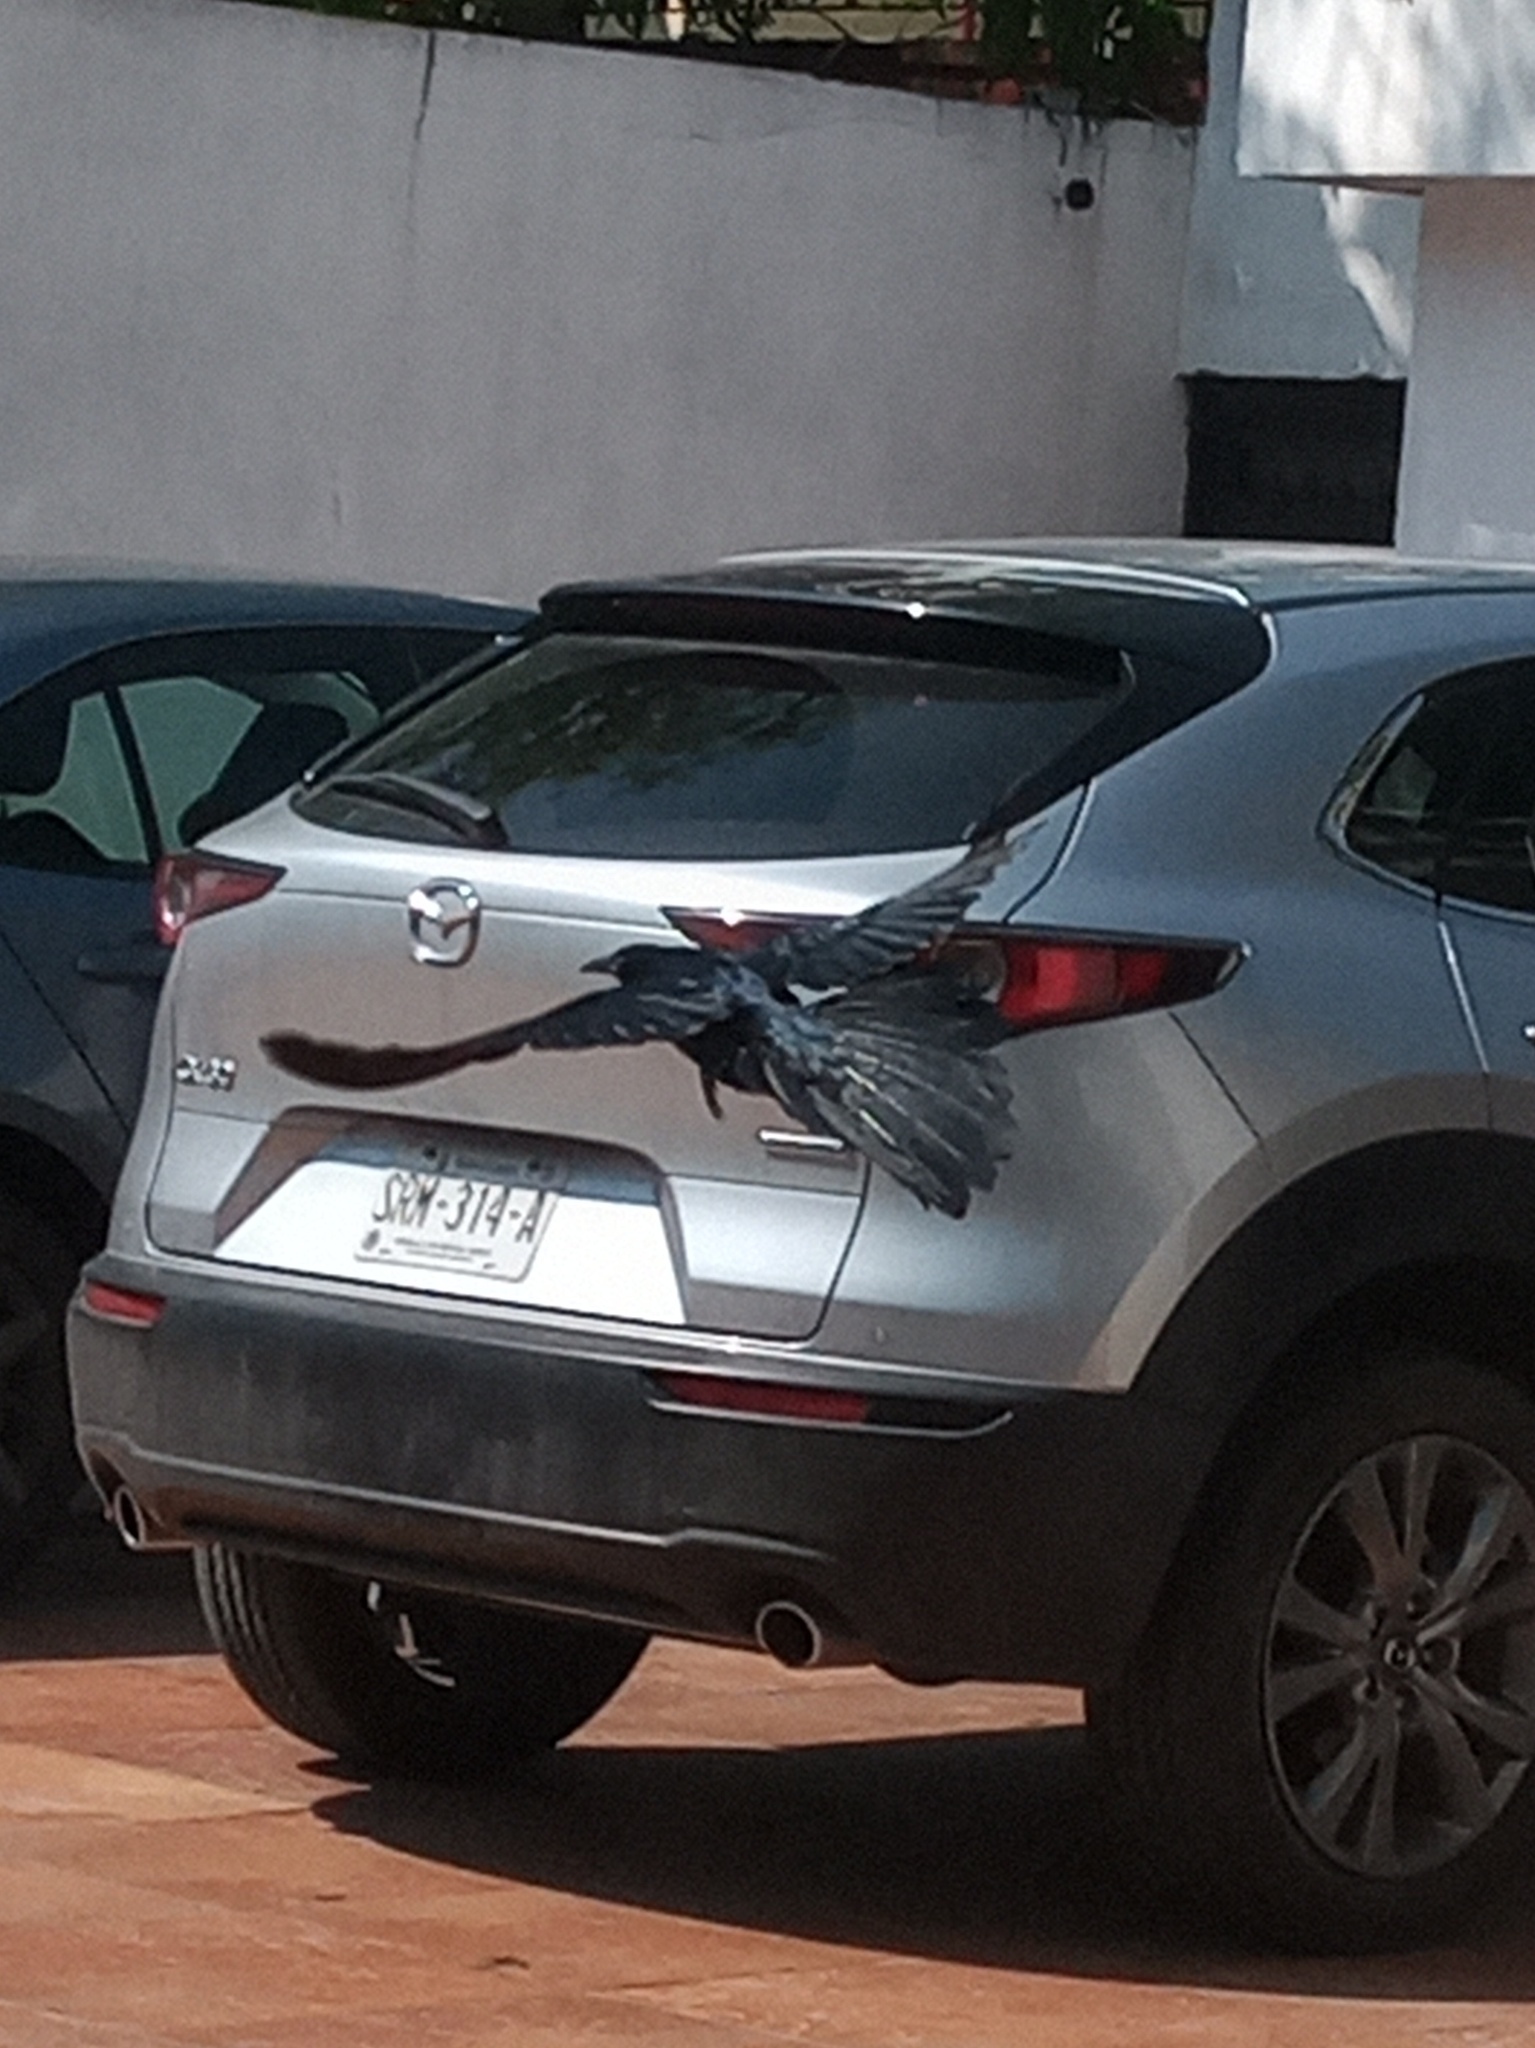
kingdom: Animalia
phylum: Chordata
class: Aves
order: Passeriformes
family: Icteridae
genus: Quiscalus
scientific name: Quiscalus mexicanus
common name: Great-tailed grackle
